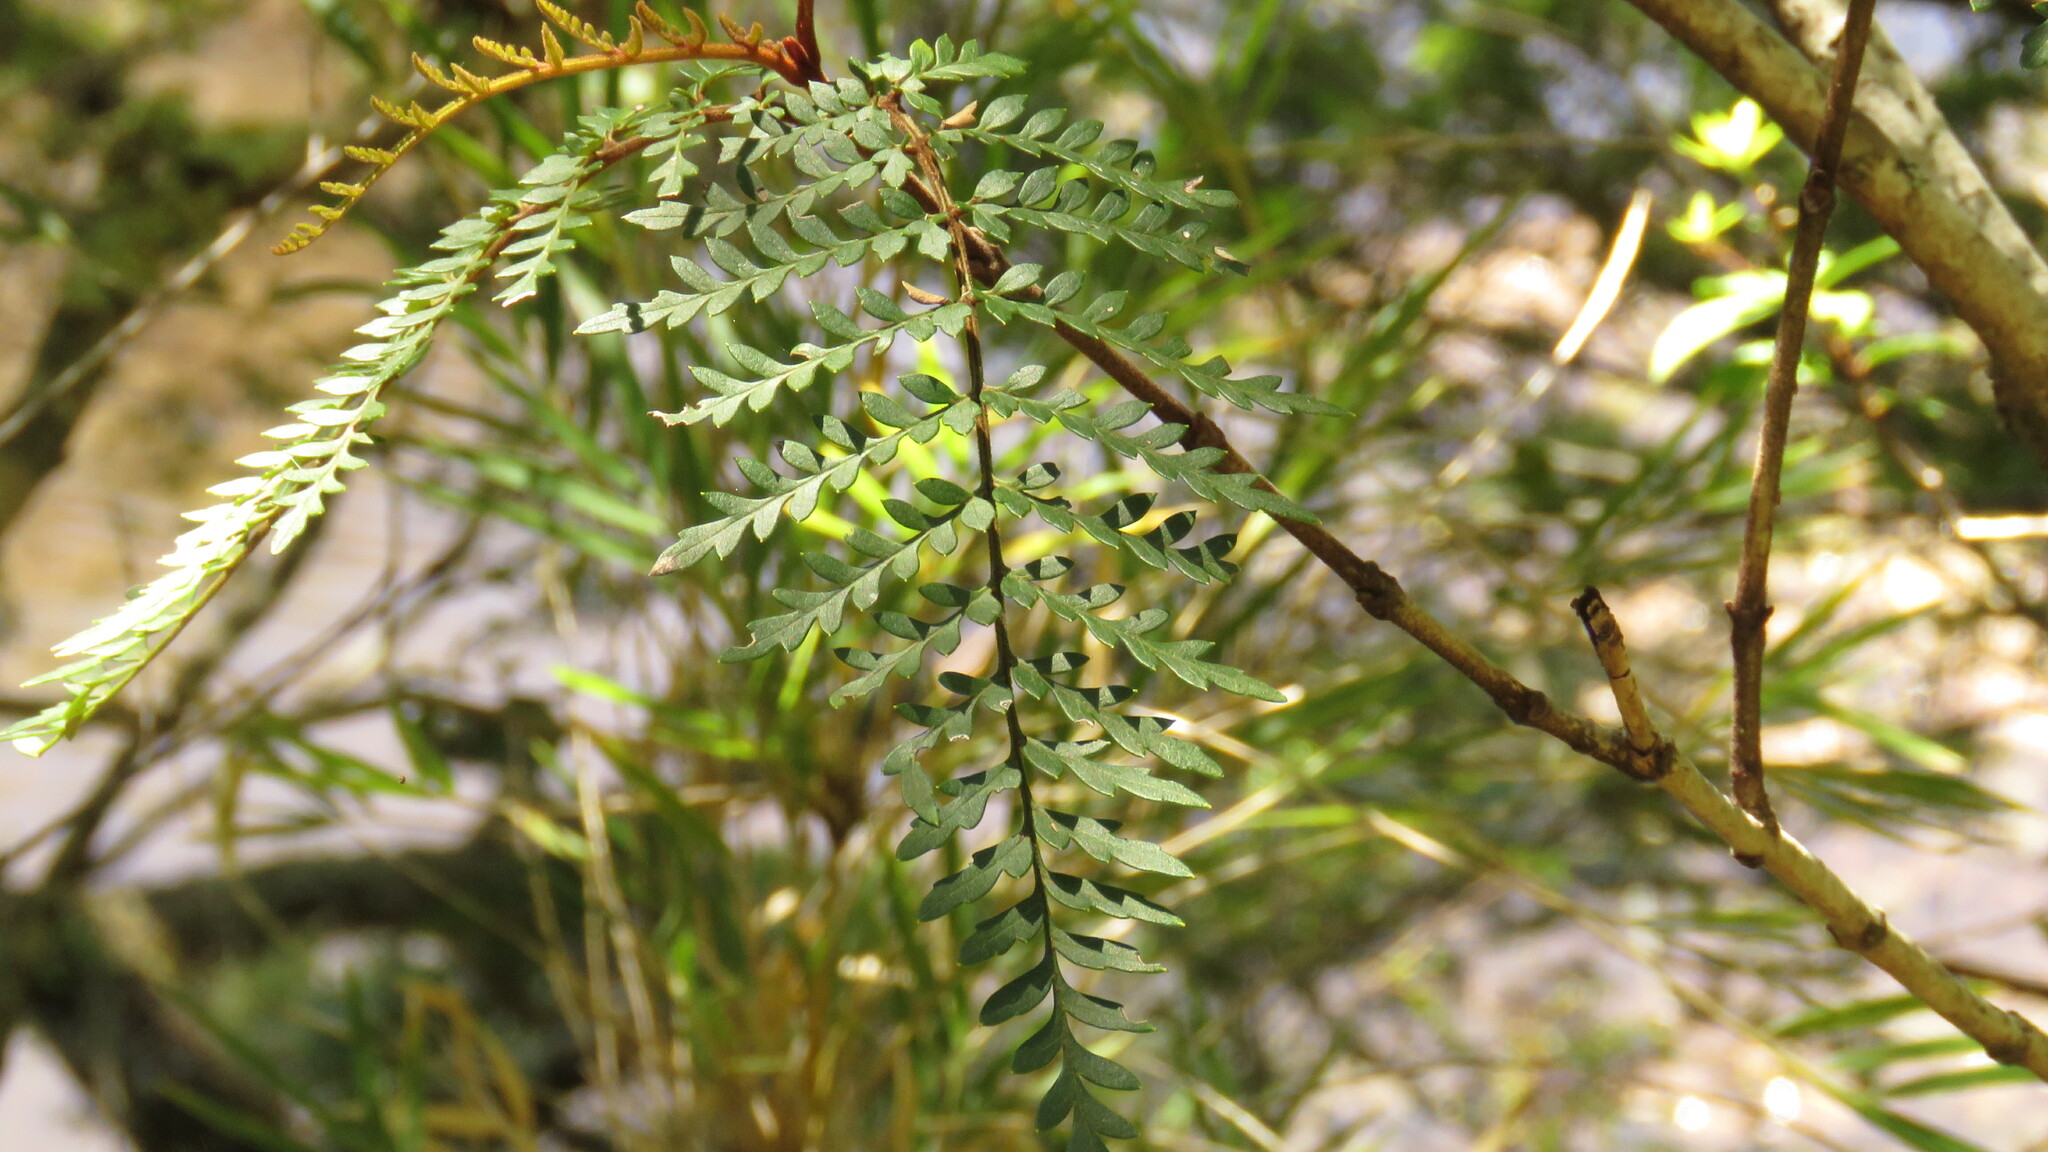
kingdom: Plantae
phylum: Tracheophyta
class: Magnoliopsida
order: Proteales
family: Proteaceae
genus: Lomatia
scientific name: Lomatia ferruginea
